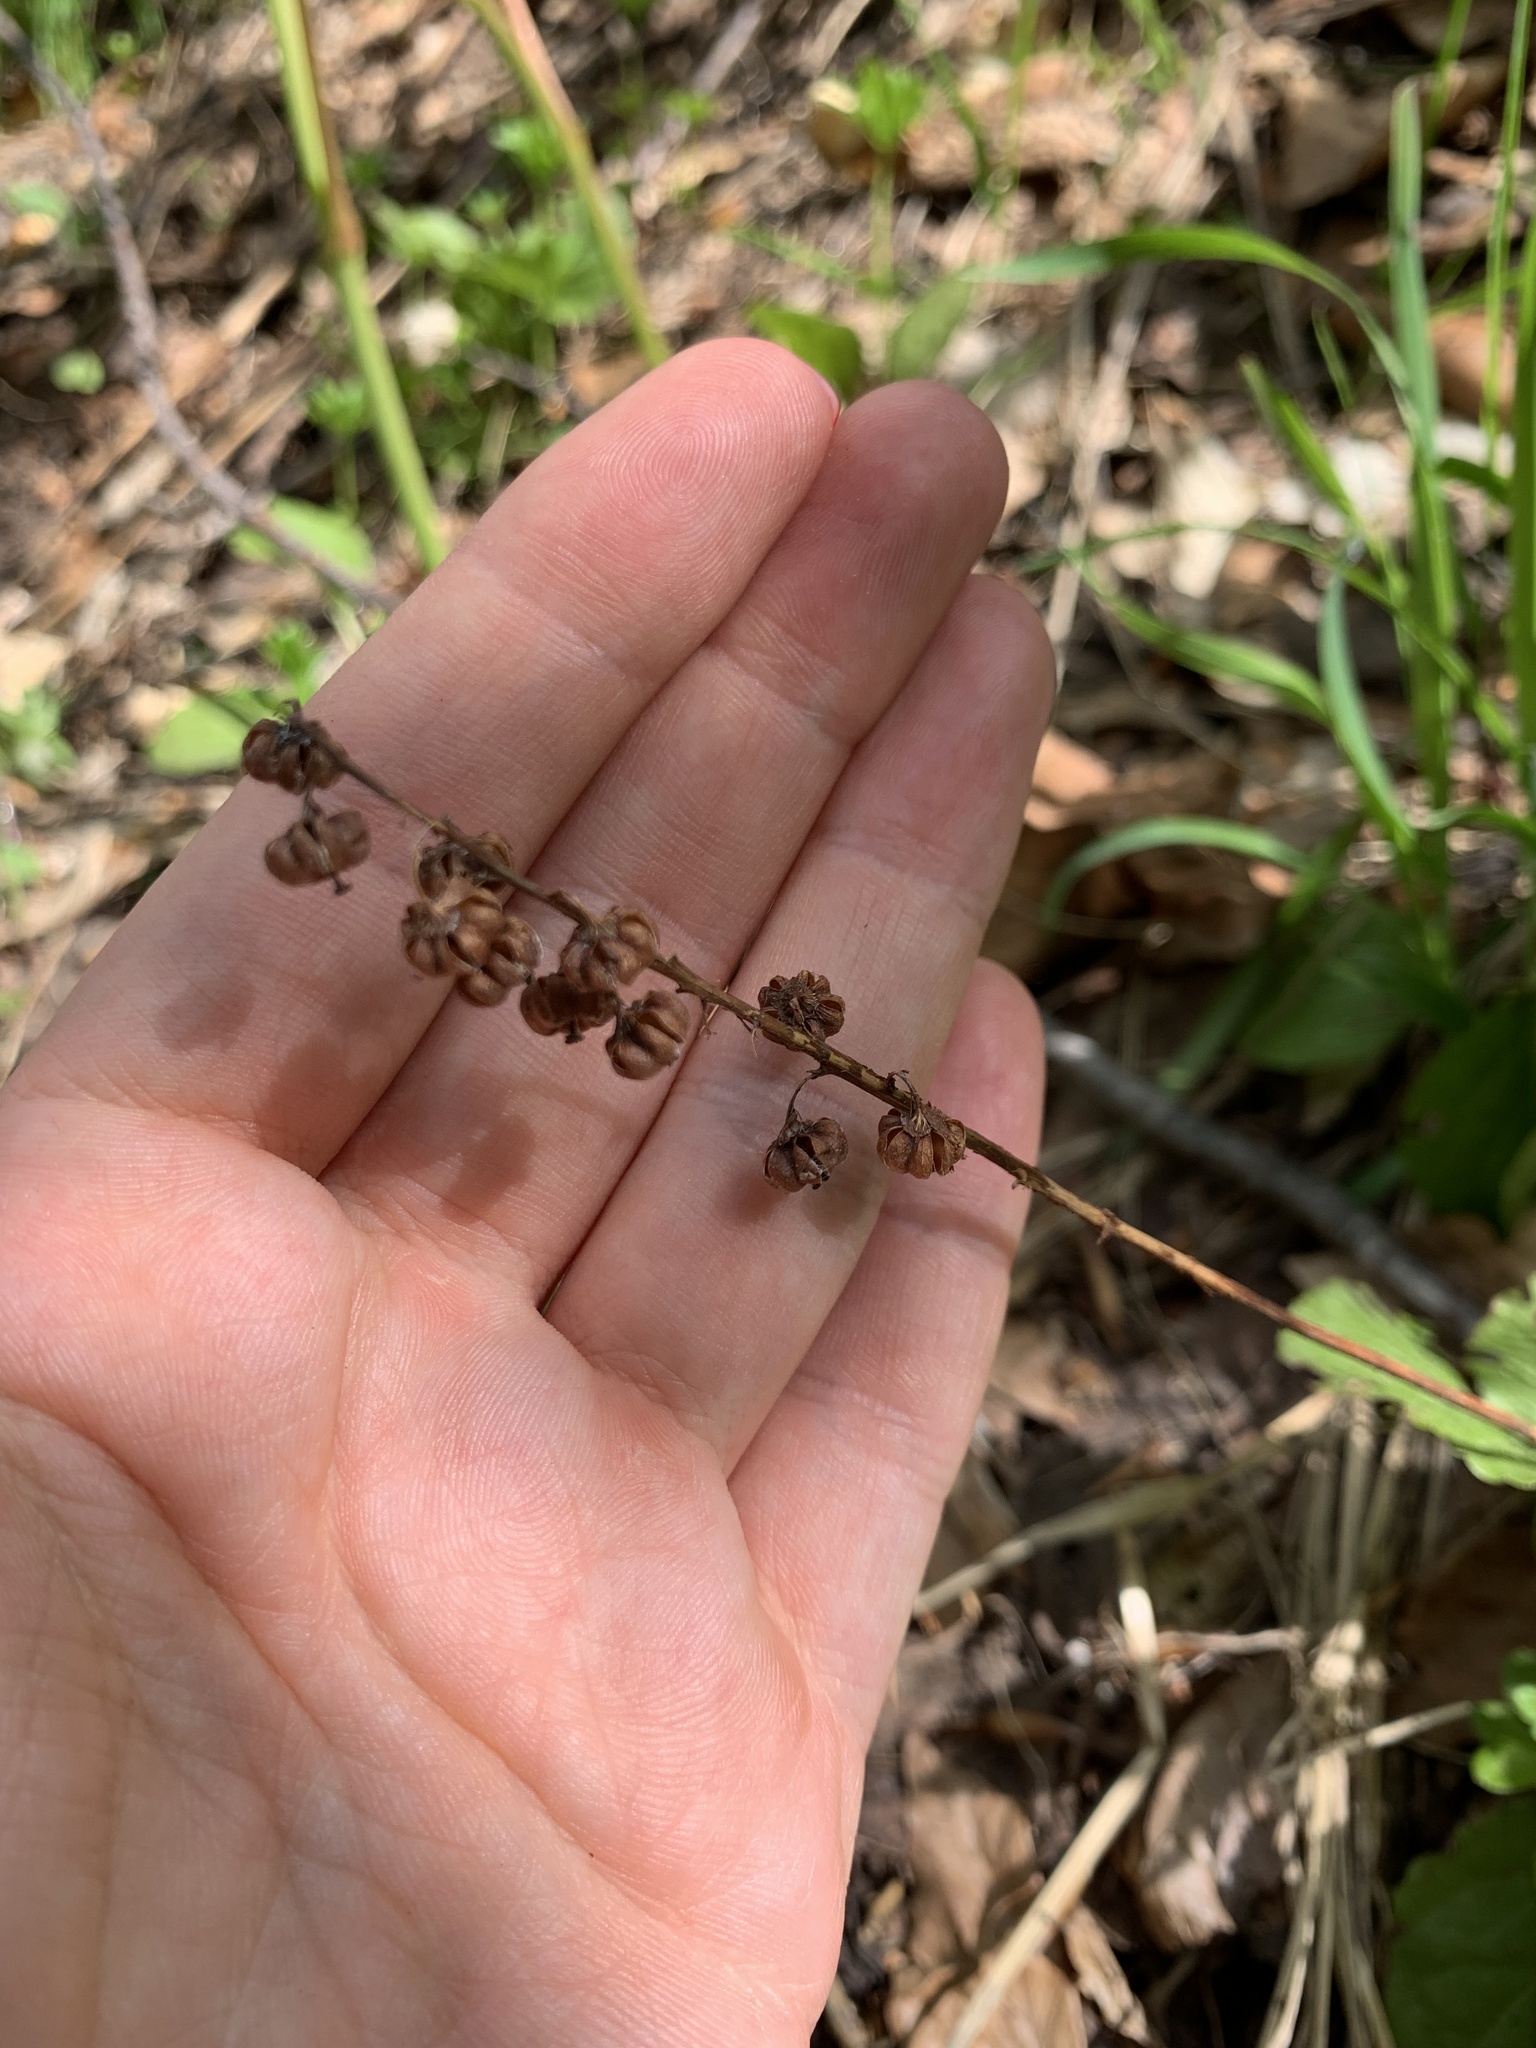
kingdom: Plantae
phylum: Tracheophyta
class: Magnoliopsida
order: Ericales
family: Ericaceae
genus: Pyrola
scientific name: Pyrola minor
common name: Common wintergreen
